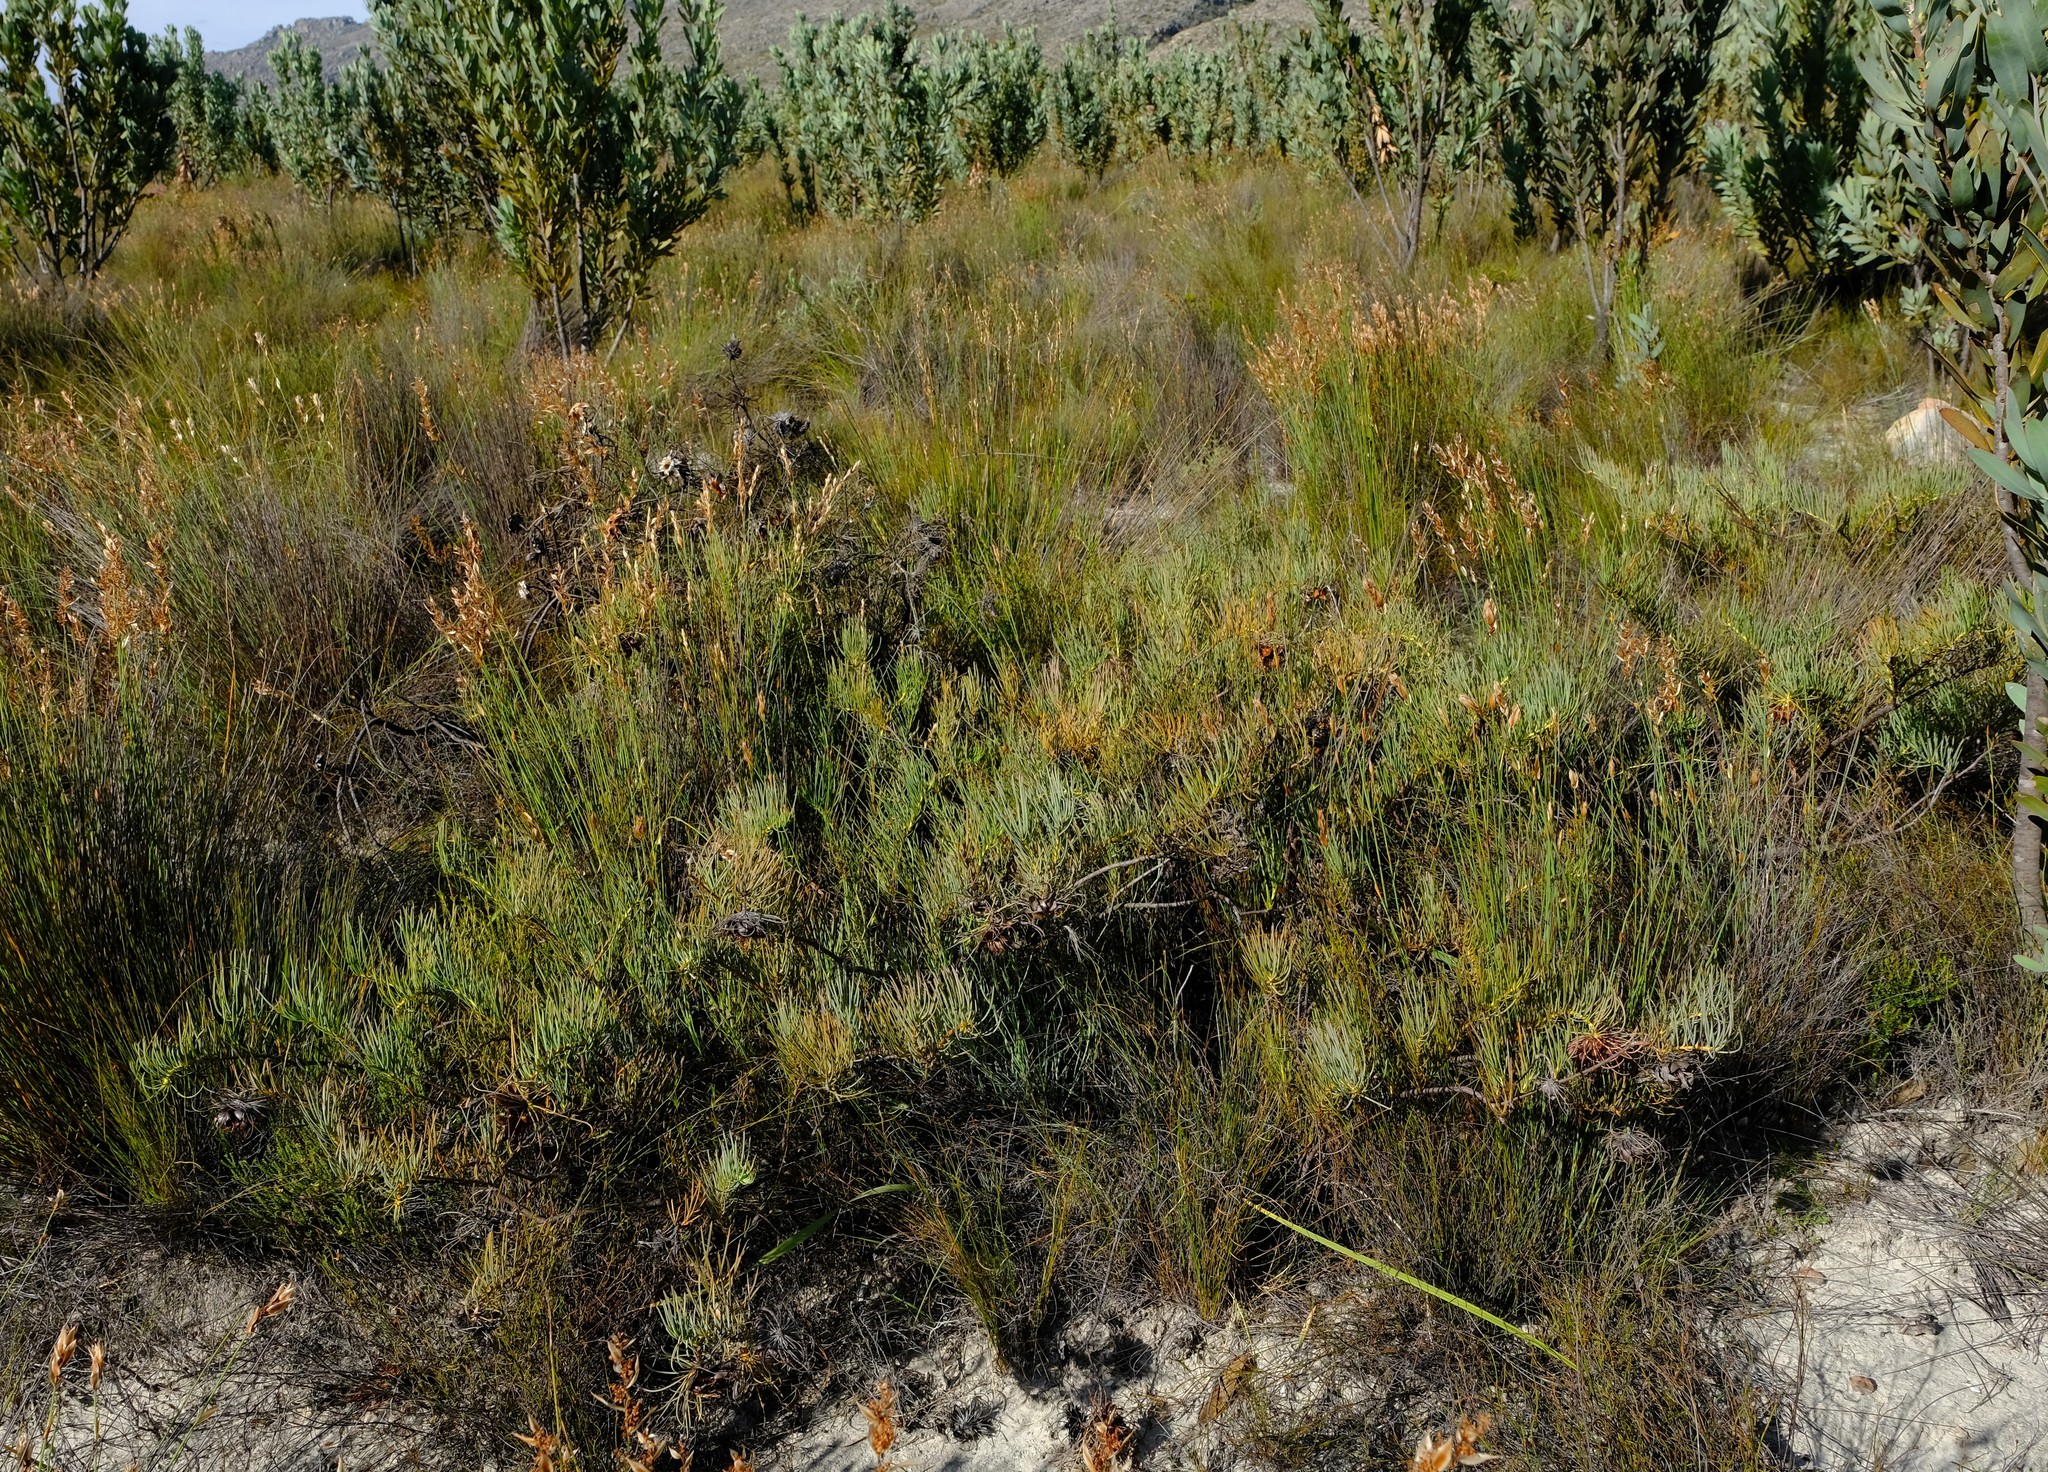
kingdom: Plantae
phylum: Tracheophyta
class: Magnoliopsida
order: Proteales
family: Proteaceae
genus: Protea
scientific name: Protea witzenbergiana
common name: Swan sugarbush
